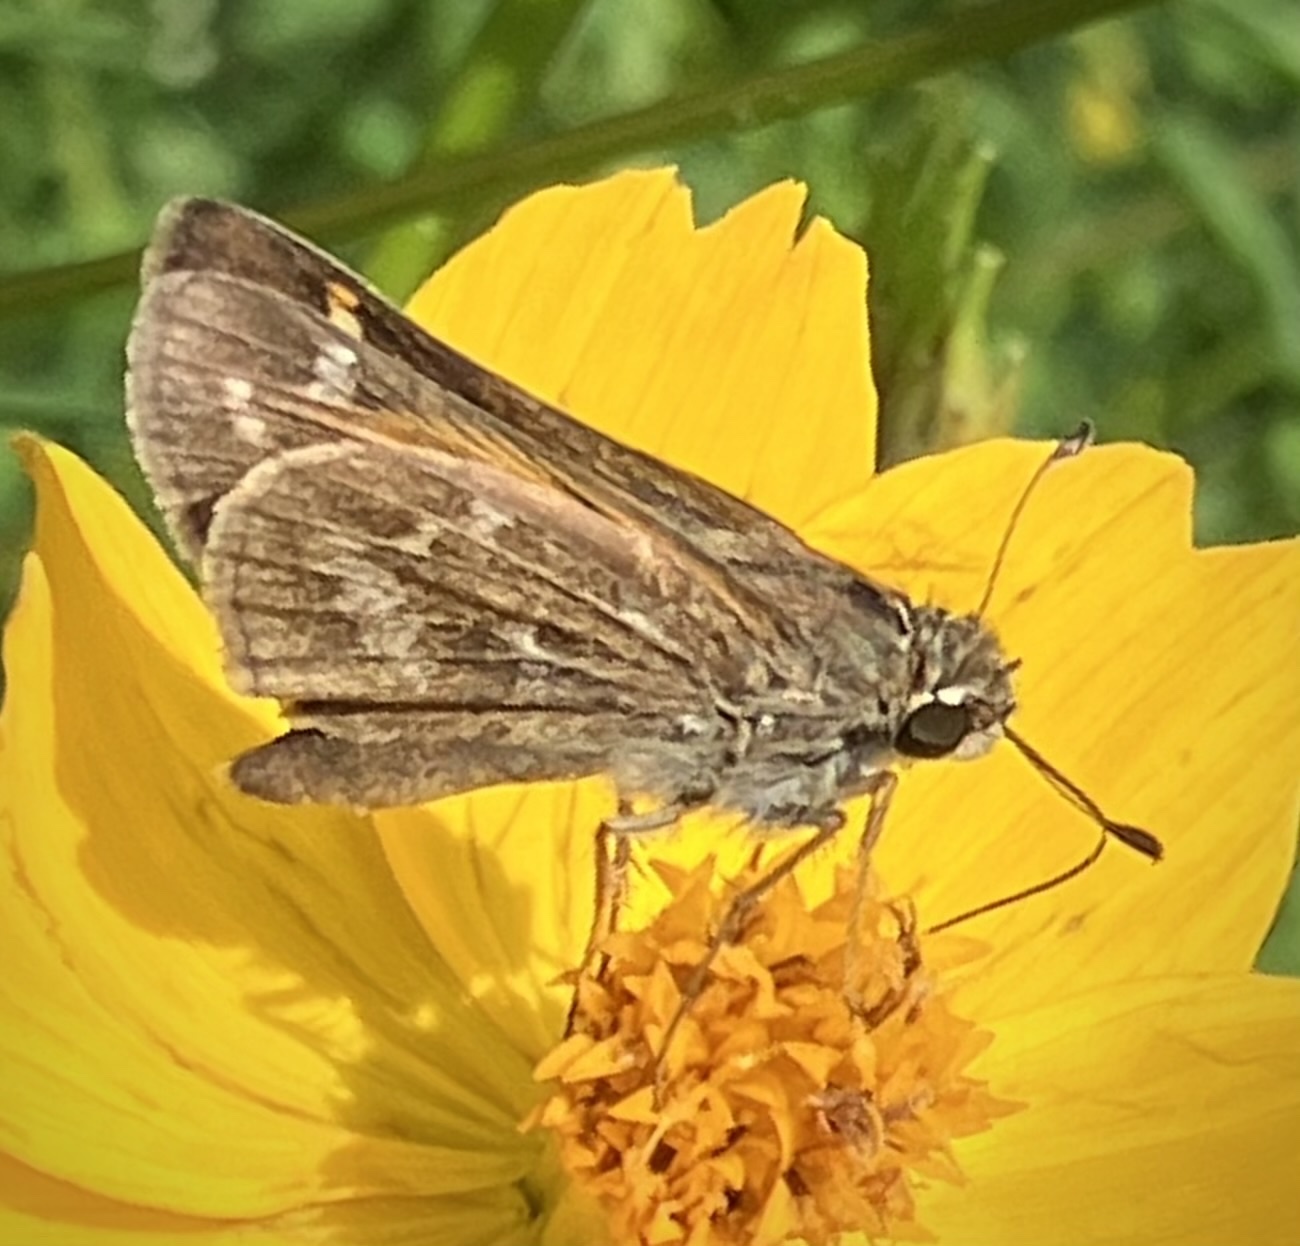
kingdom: Animalia
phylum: Arthropoda
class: Insecta
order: Lepidoptera
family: Hesperiidae
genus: Atalopedes
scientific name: Atalopedes
